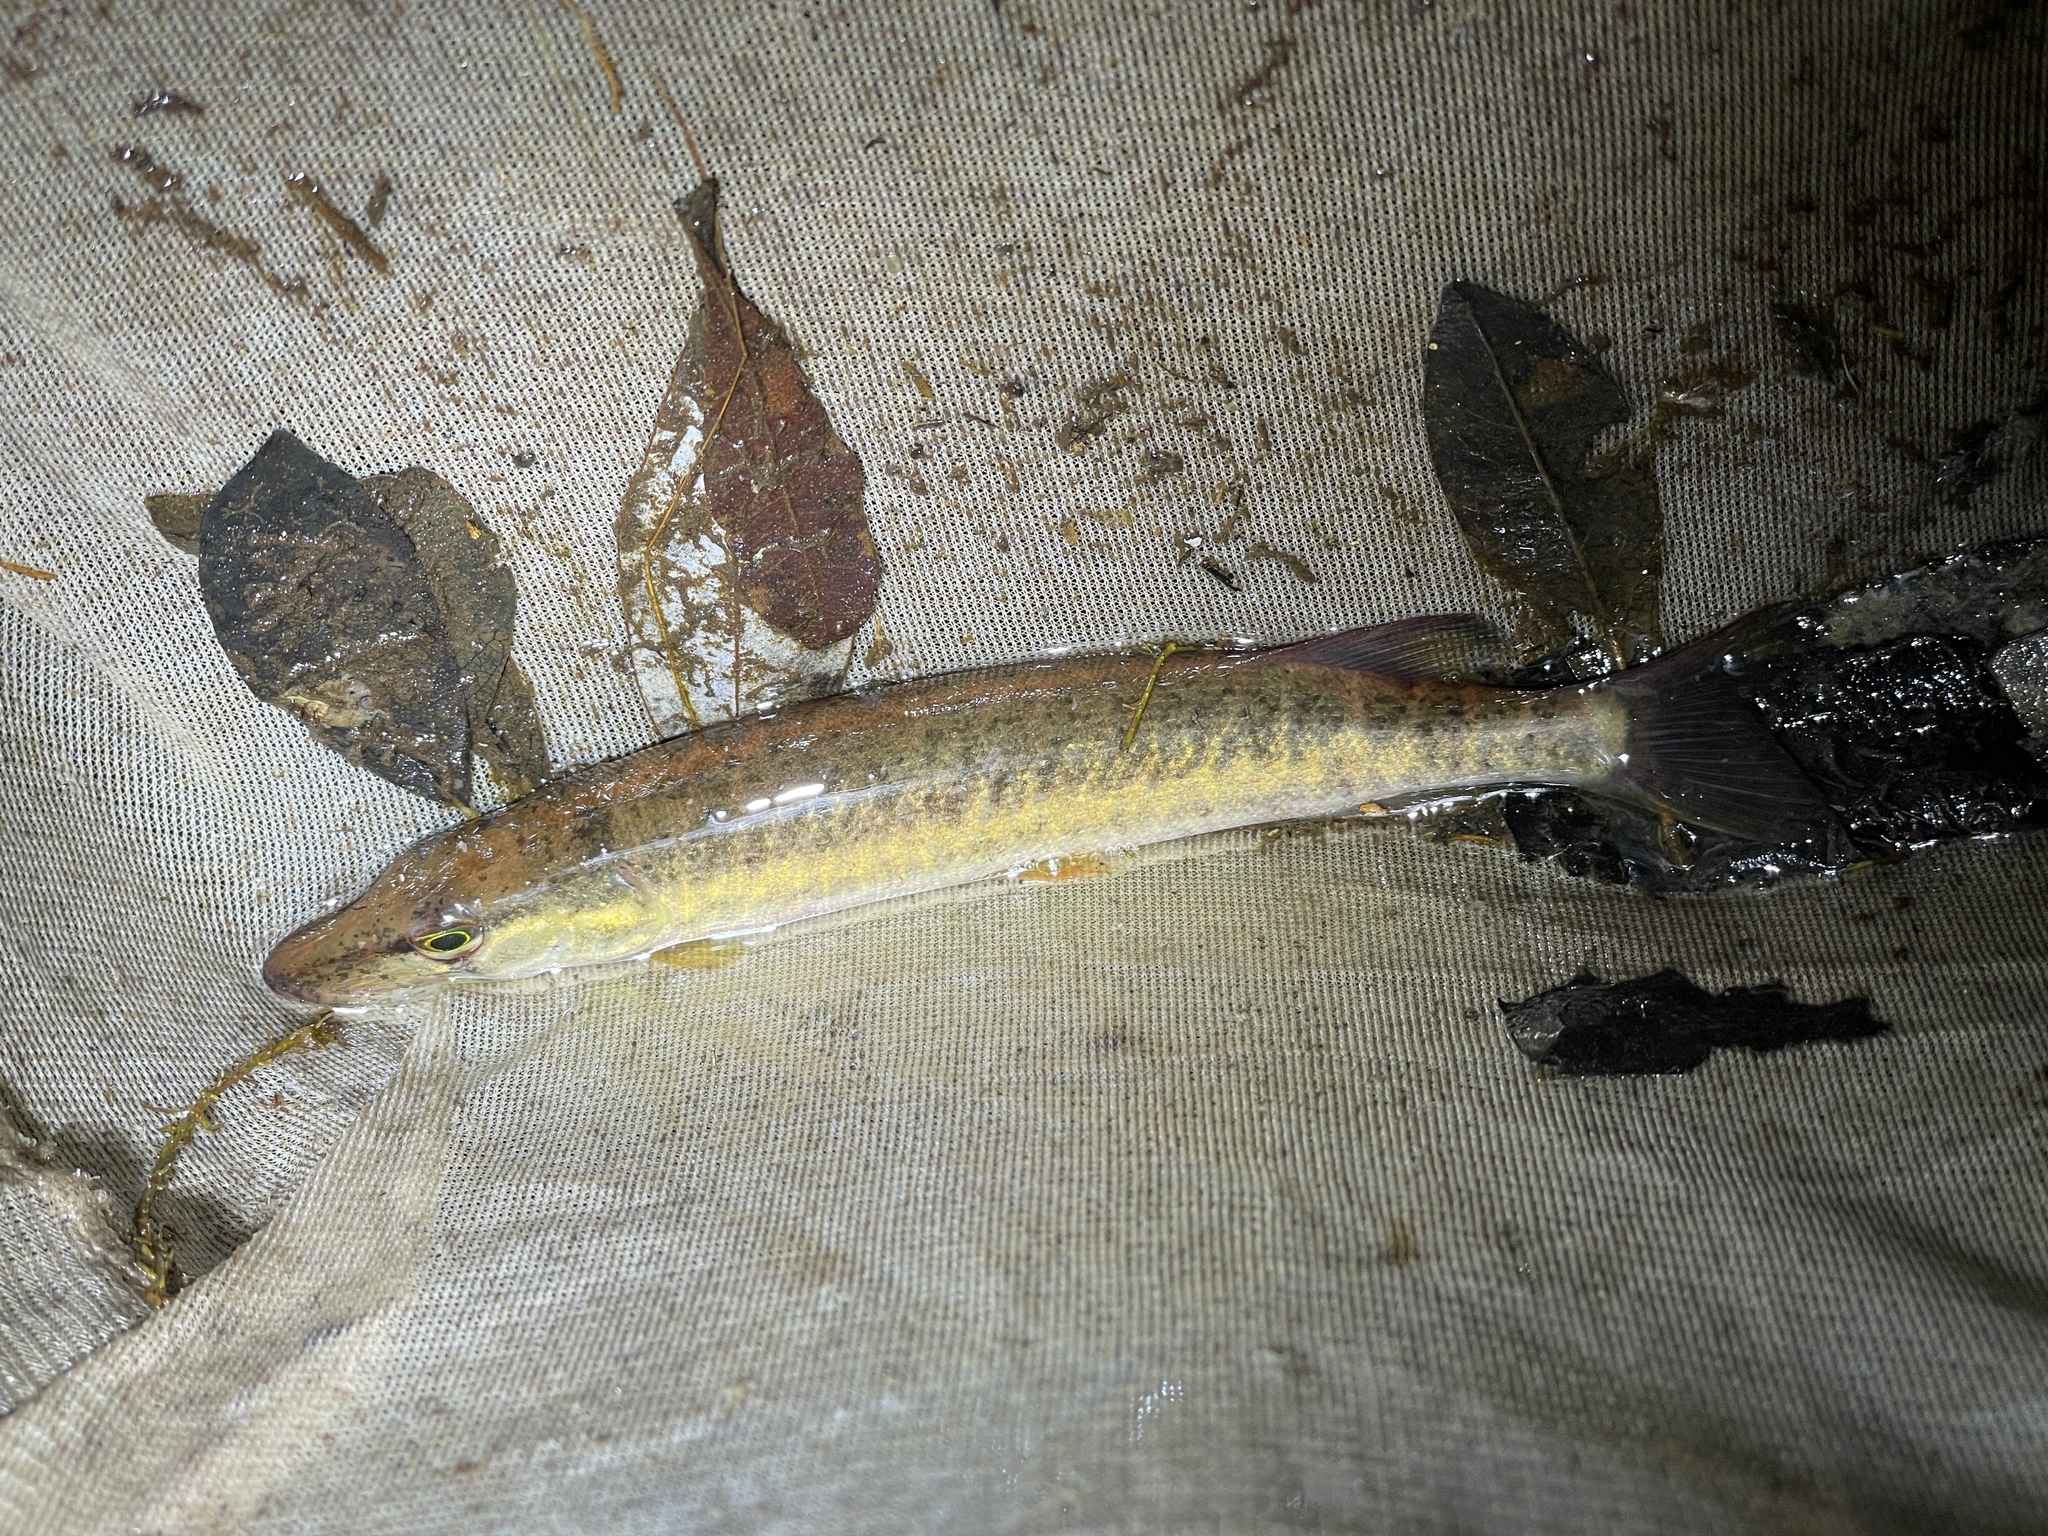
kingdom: Animalia
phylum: Chordata
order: Esociformes
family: Esocidae
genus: Esox
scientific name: Esox americanus
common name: Redfin pickerel
